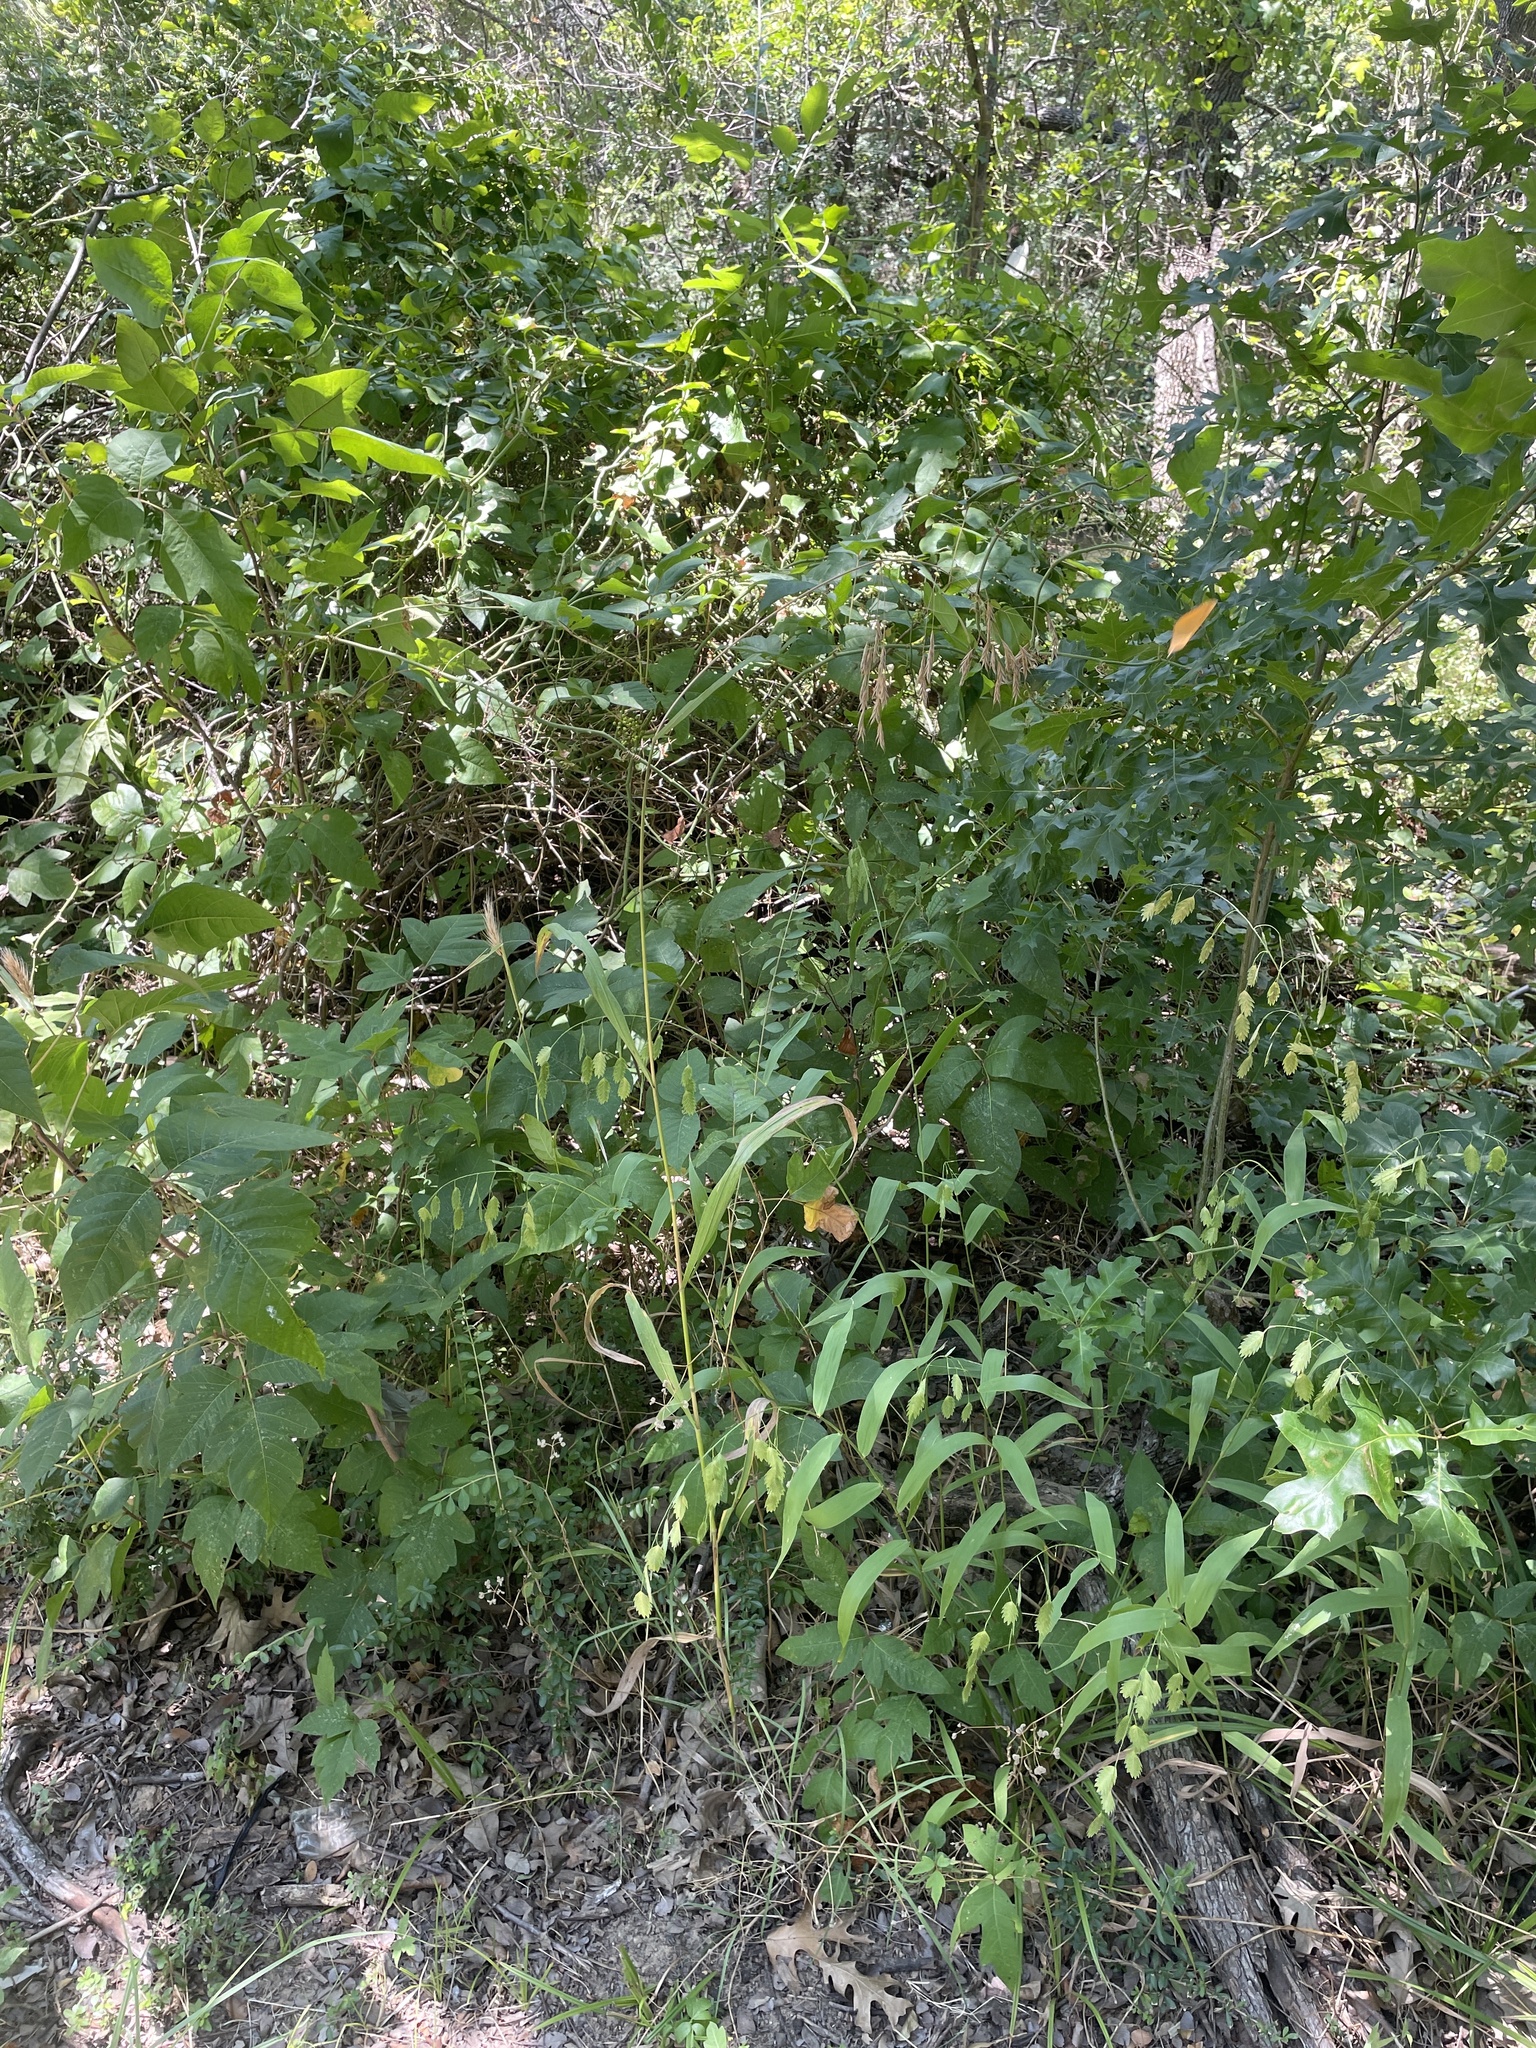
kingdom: Plantae
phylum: Tracheophyta
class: Liliopsida
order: Poales
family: Poaceae
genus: Bromus
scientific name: Bromus pubescens
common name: Hairy wood brome grass
